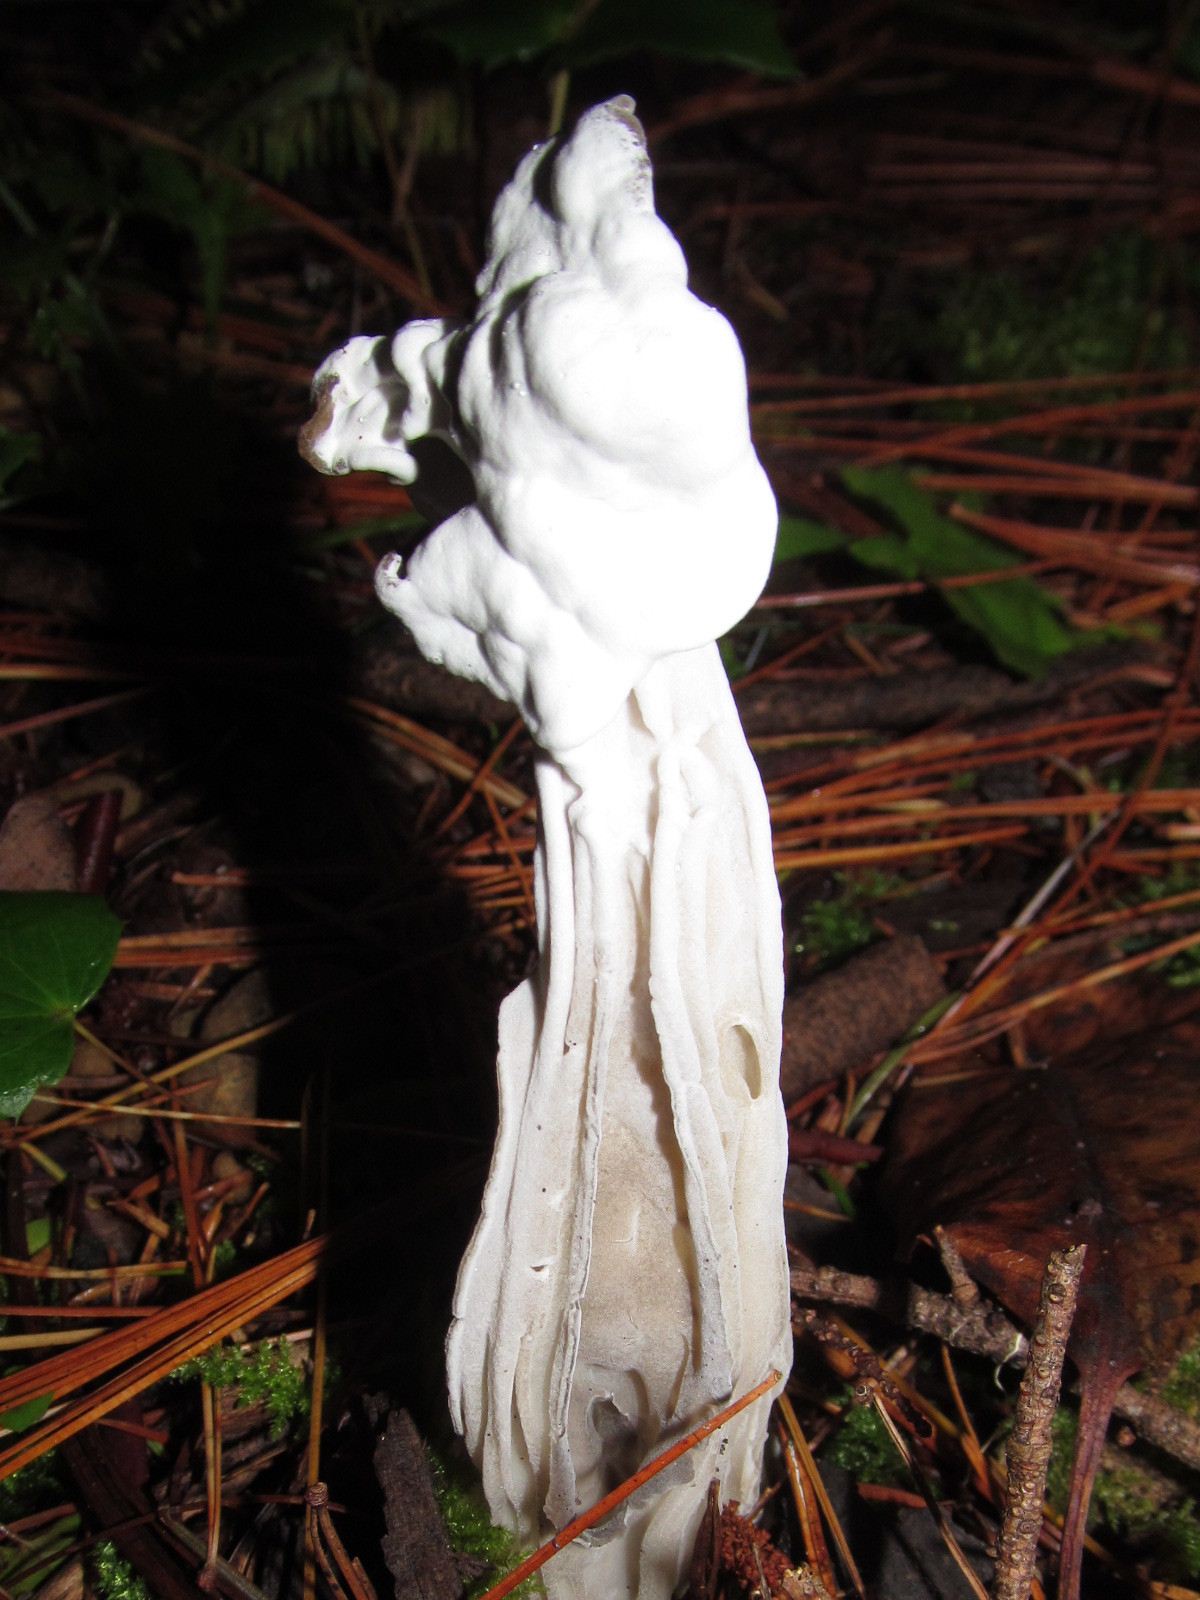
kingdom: Fungi
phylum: Ascomycota
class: Sordariomycetes
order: Hypocreales
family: Hypocreaceae
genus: Hypomyces
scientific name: Hypomyces cervinus
